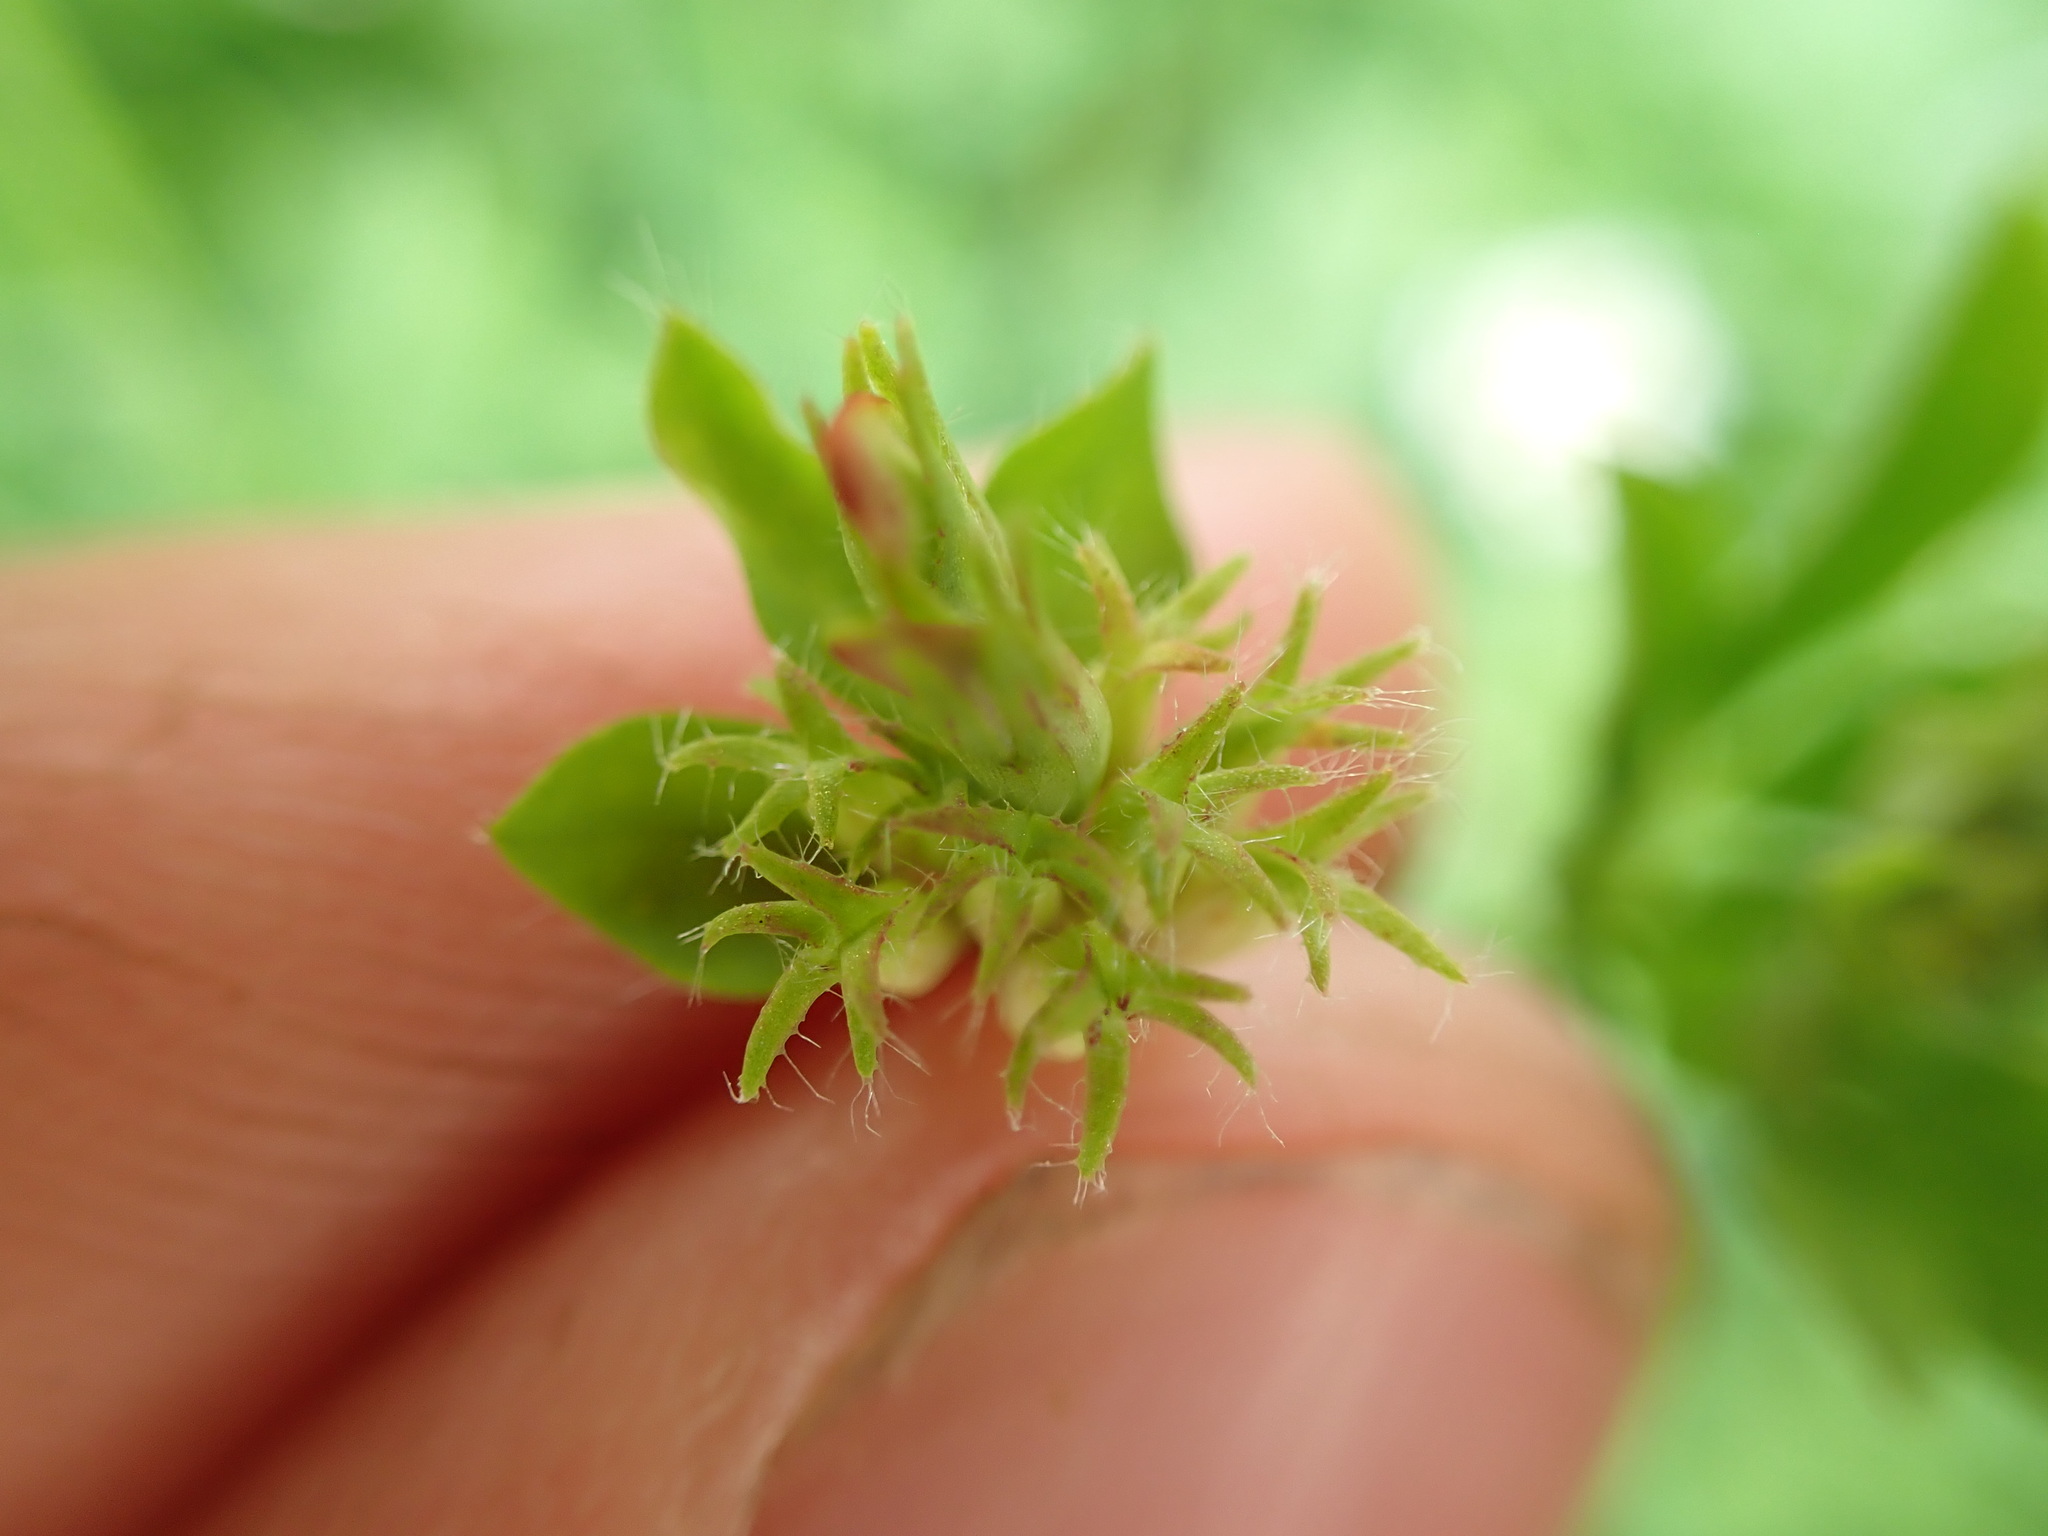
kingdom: Plantae
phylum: Tracheophyta
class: Magnoliopsida
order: Fabales
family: Fabaceae
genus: Lotus
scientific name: Lotus pedunculatus
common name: Greater birdsfoot-trefoil
